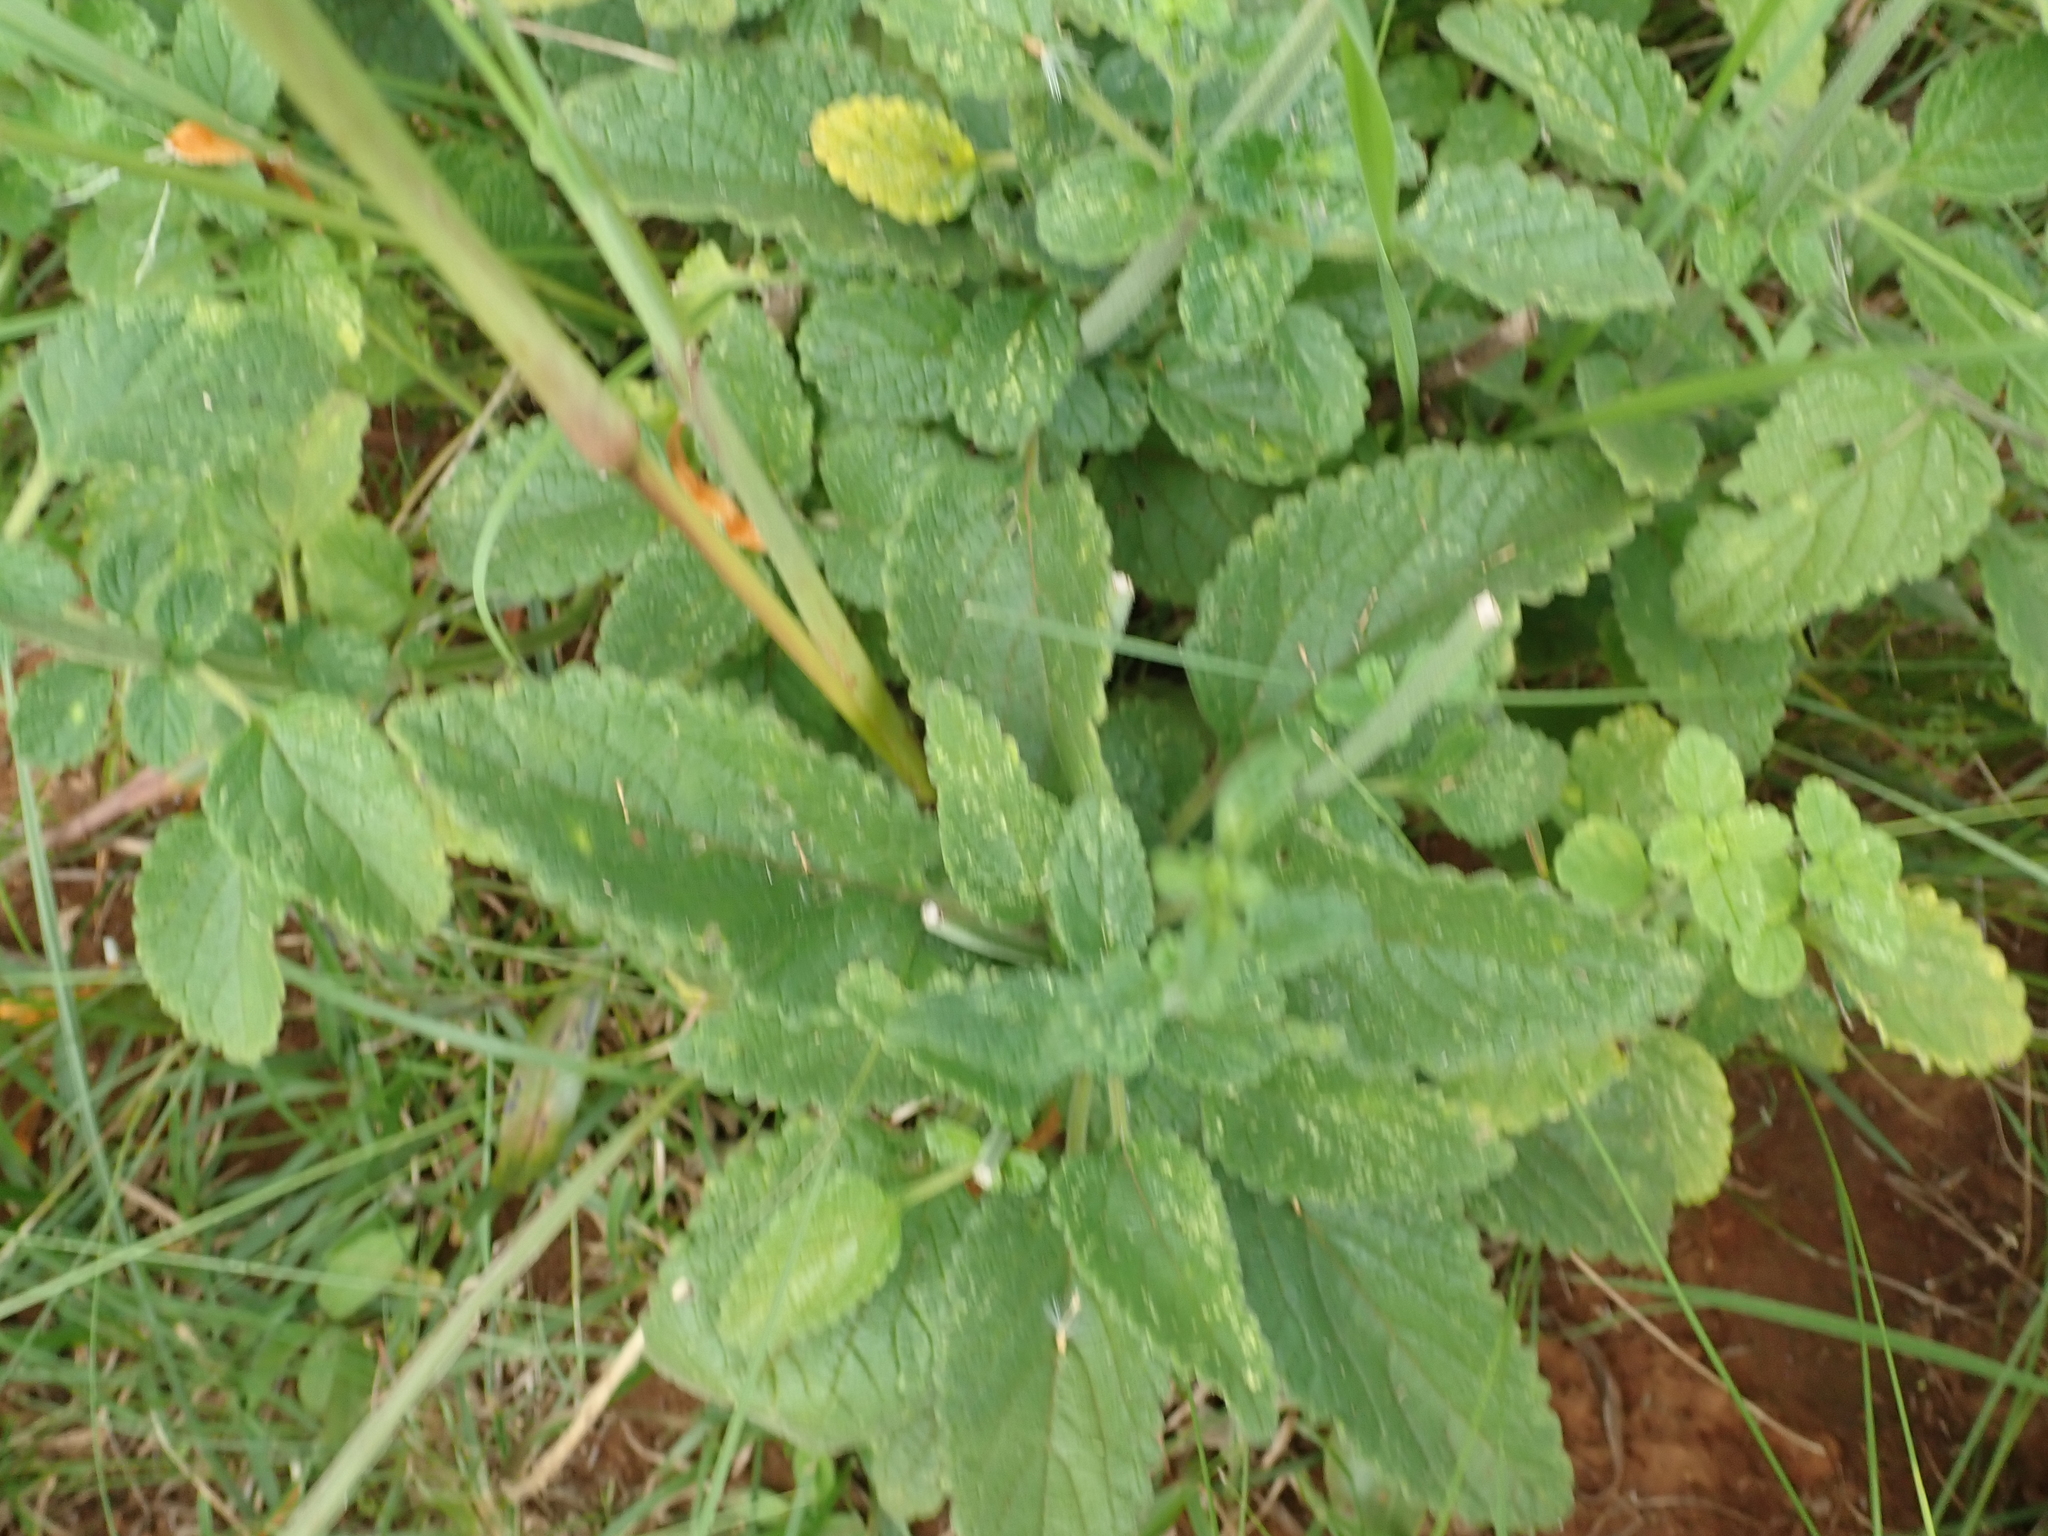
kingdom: Plantae
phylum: Tracheophyta
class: Magnoliopsida
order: Lamiales
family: Lamiaceae
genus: Leonotis
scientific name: Leonotis ocymifolia
